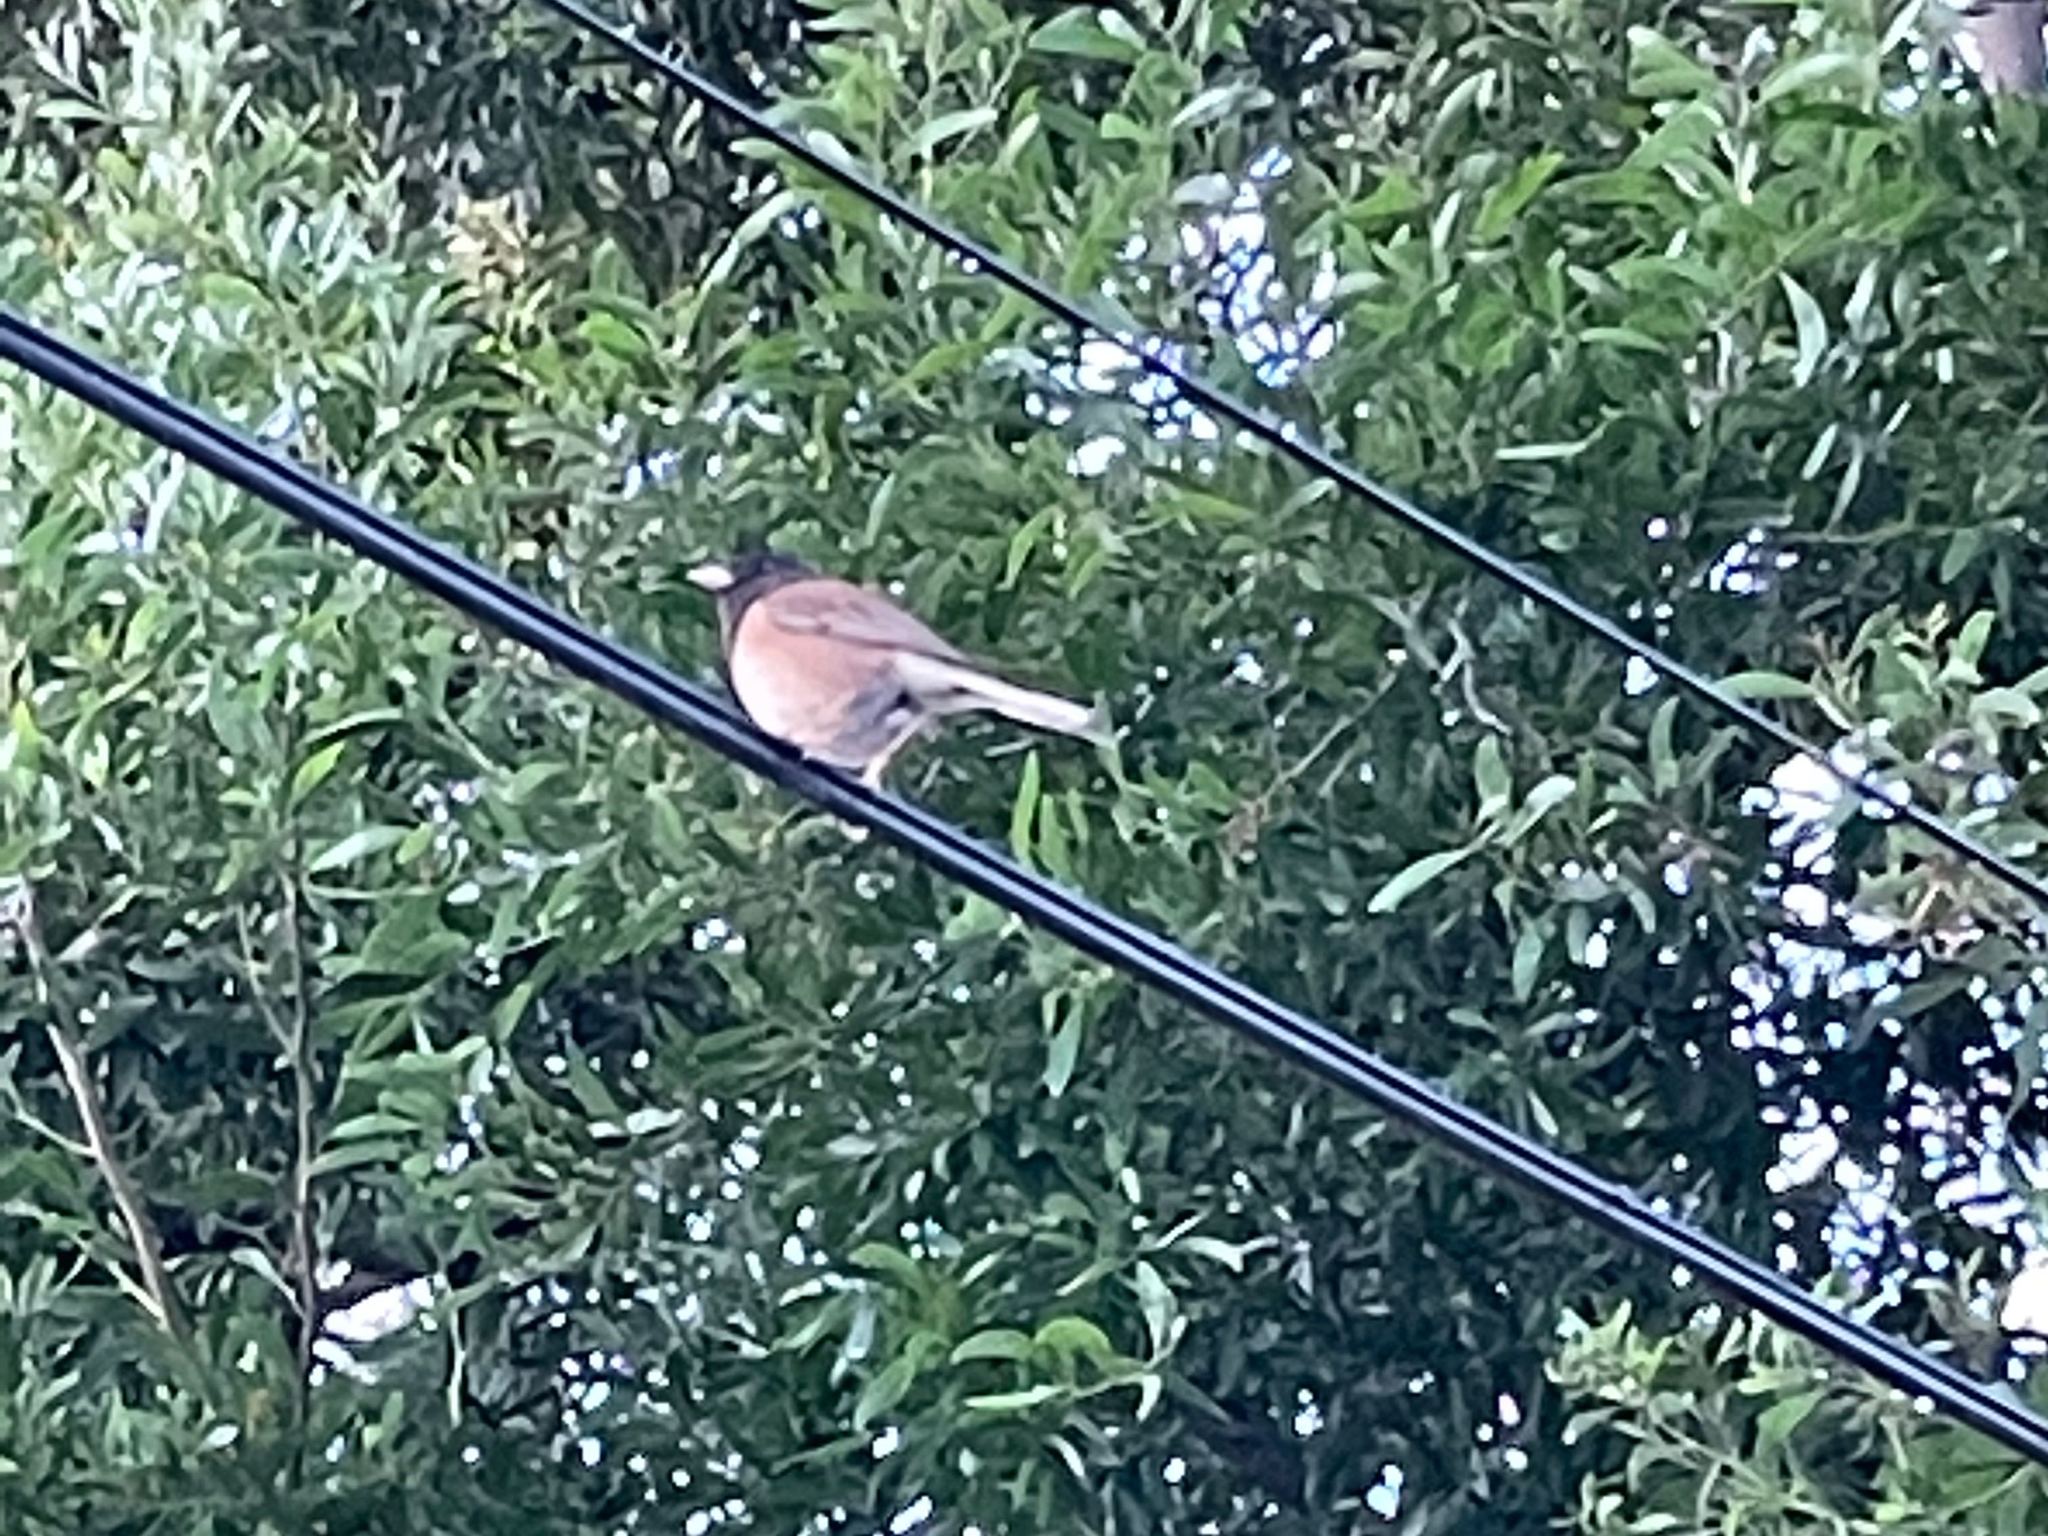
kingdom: Animalia
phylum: Chordata
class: Aves
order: Passeriformes
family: Passerellidae
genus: Junco
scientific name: Junco hyemalis
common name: Dark-eyed junco
